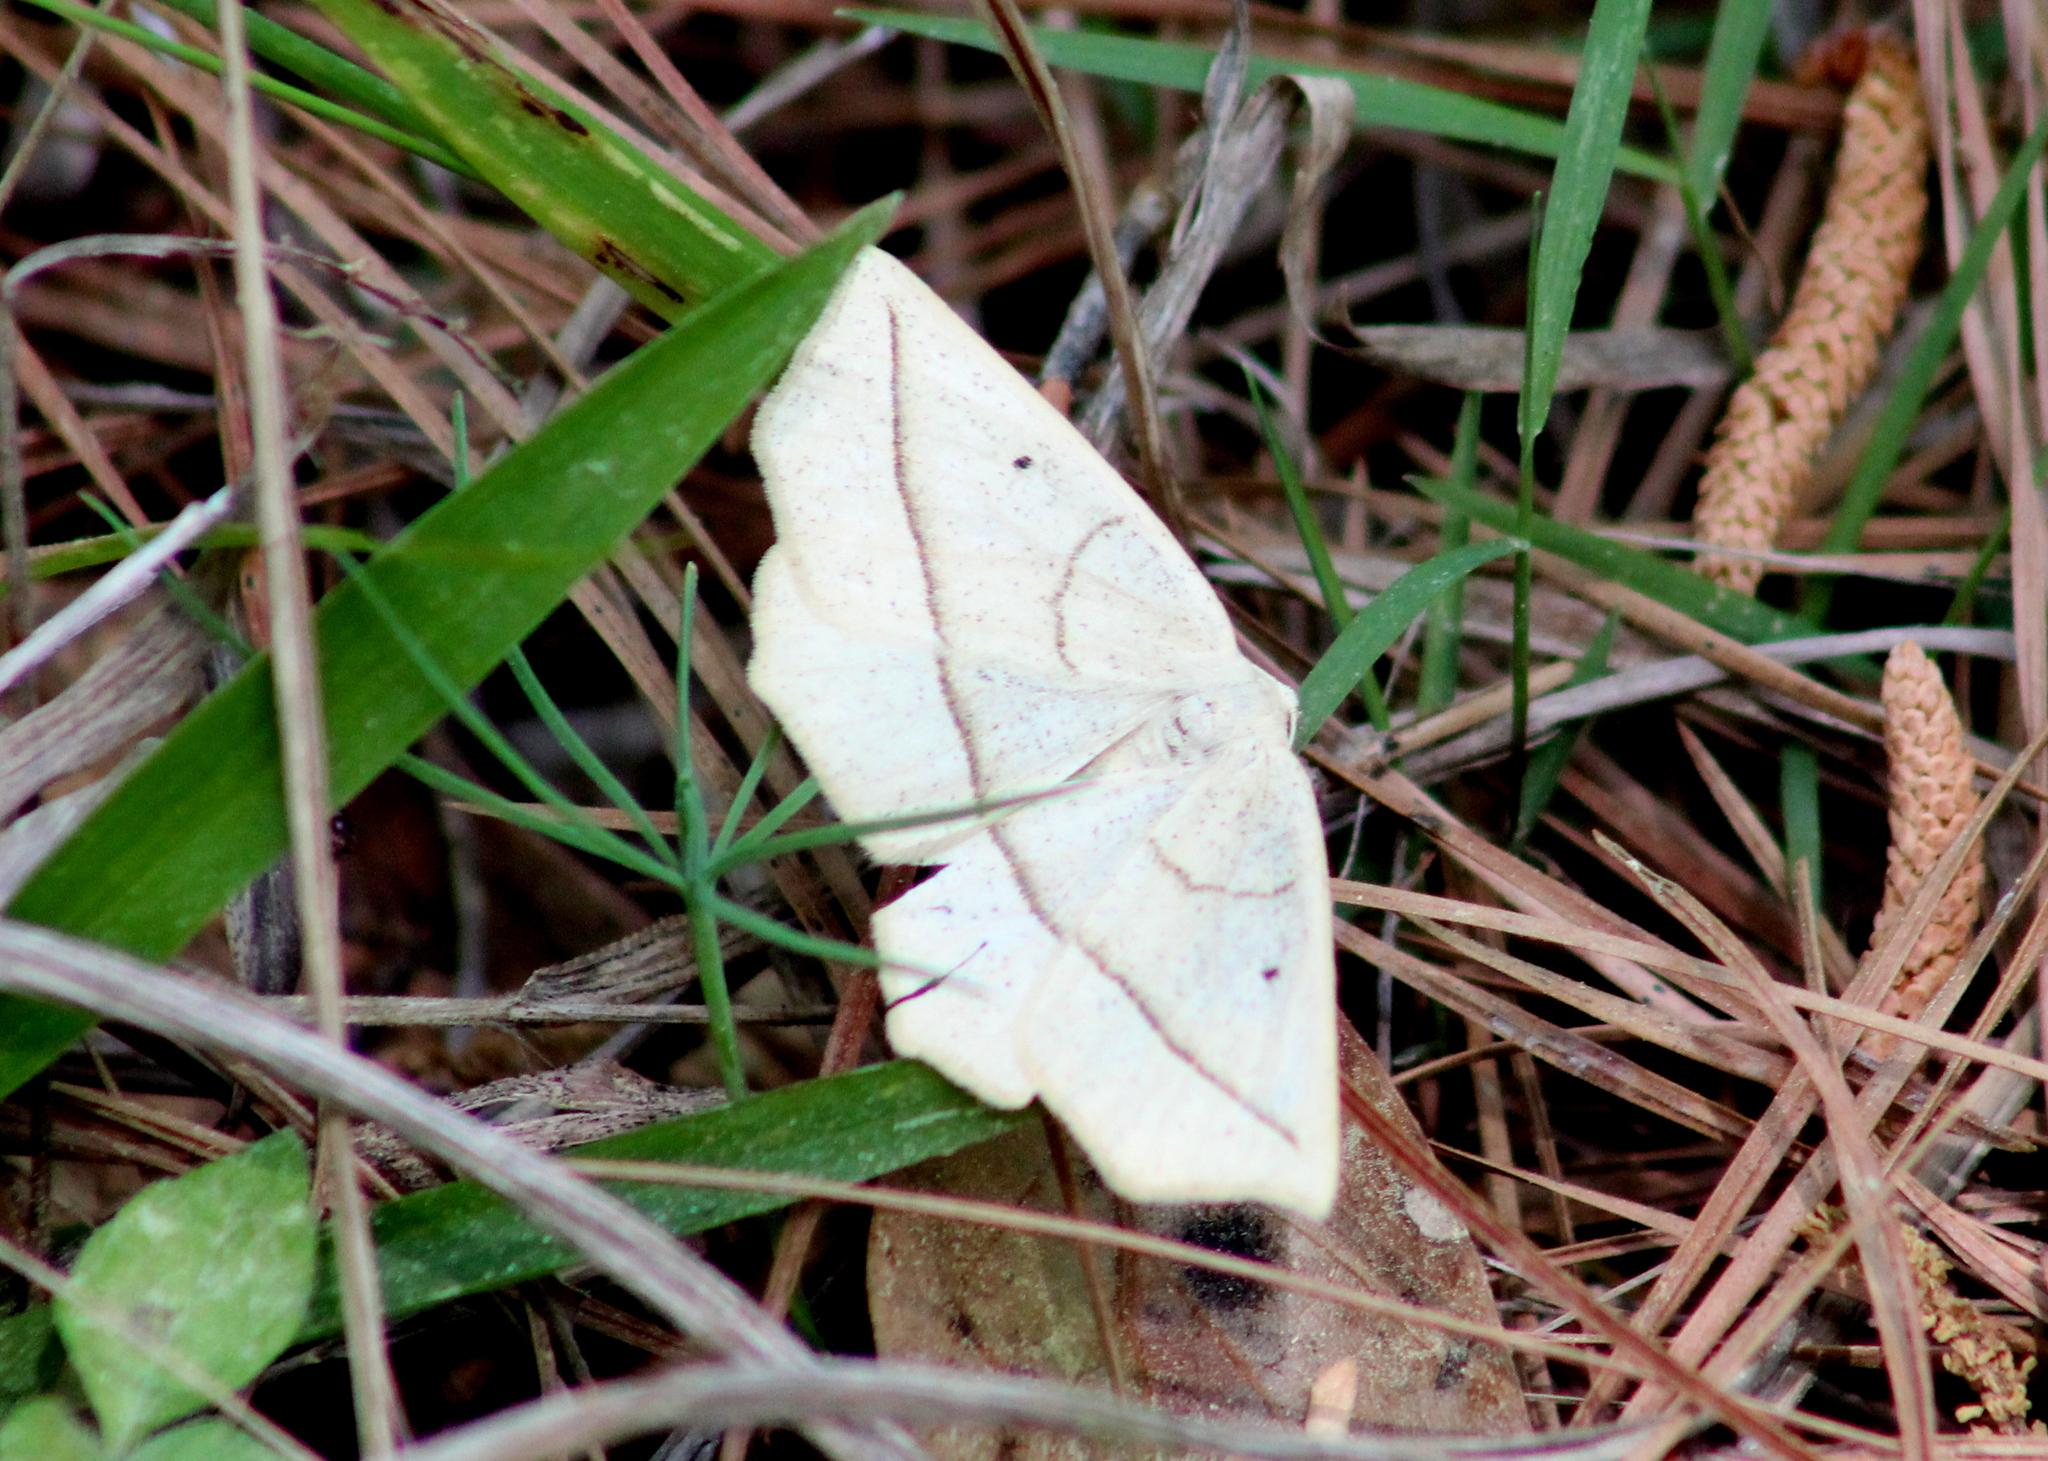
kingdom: Animalia
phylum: Arthropoda
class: Insecta
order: Lepidoptera
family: Geometridae
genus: Eusarca
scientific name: Eusarca confusaria
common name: Confused eusarca
